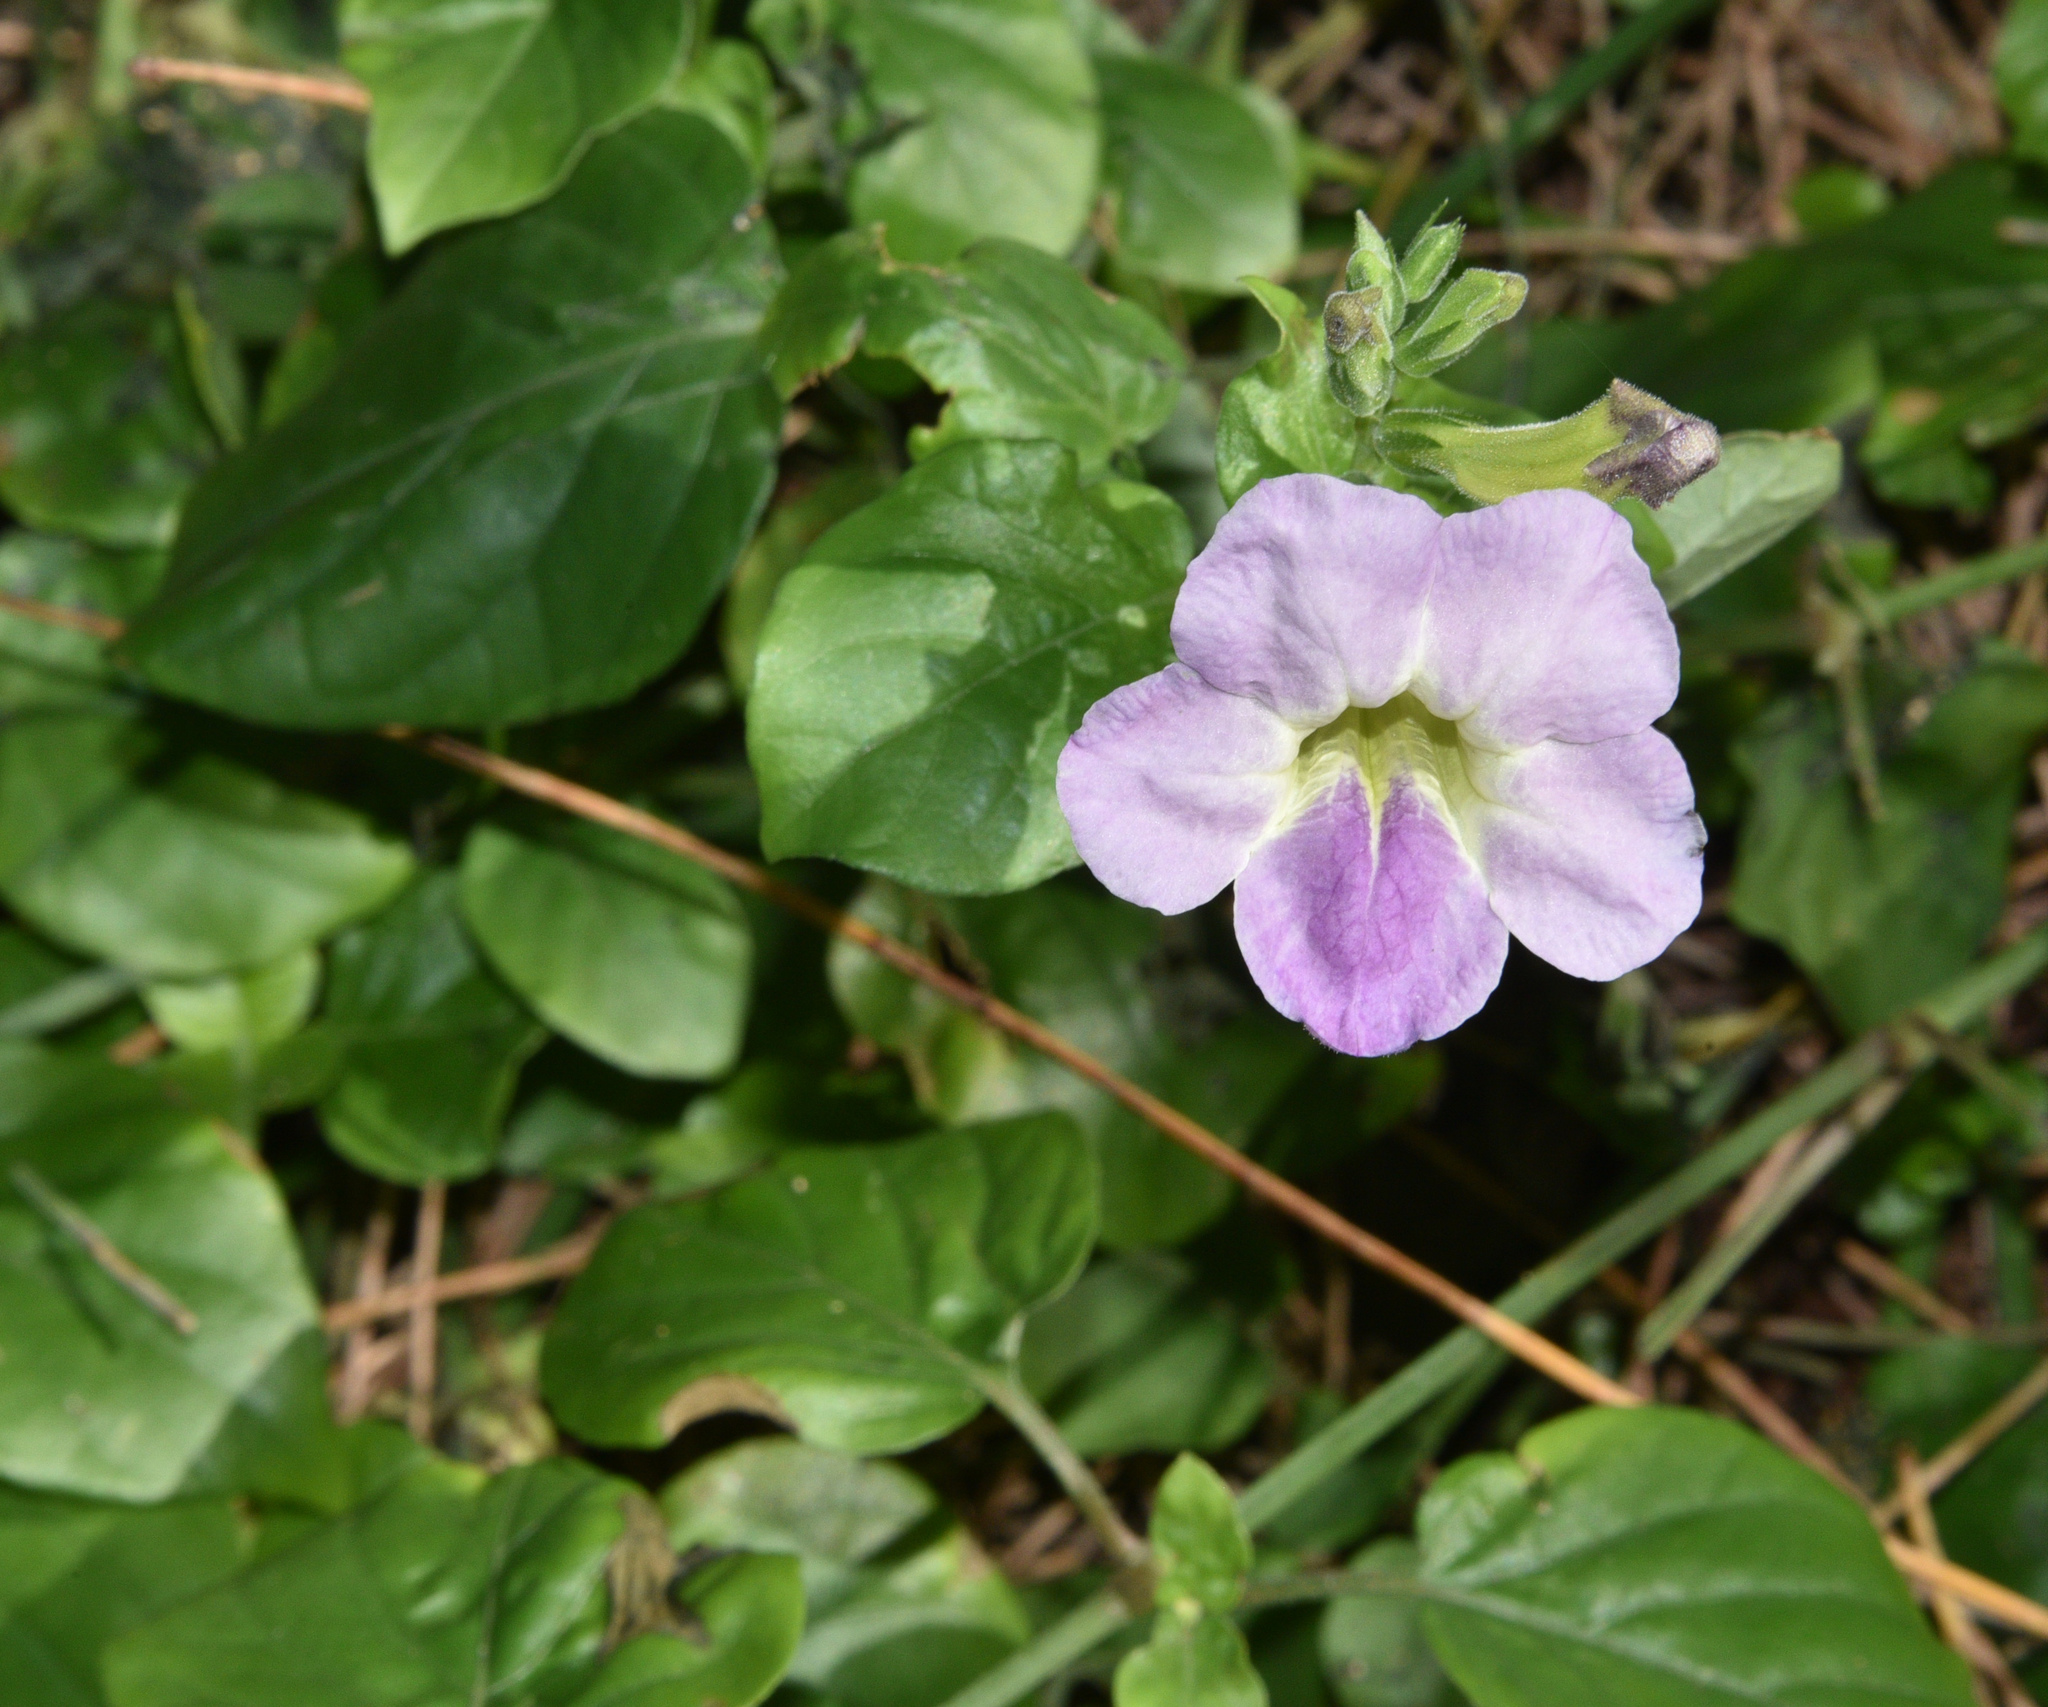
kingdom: Plantae
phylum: Tracheophyta
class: Magnoliopsida
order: Lamiales
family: Acanthaceae
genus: Asystasia
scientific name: Asystasia gangetica
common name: Chinese violet
